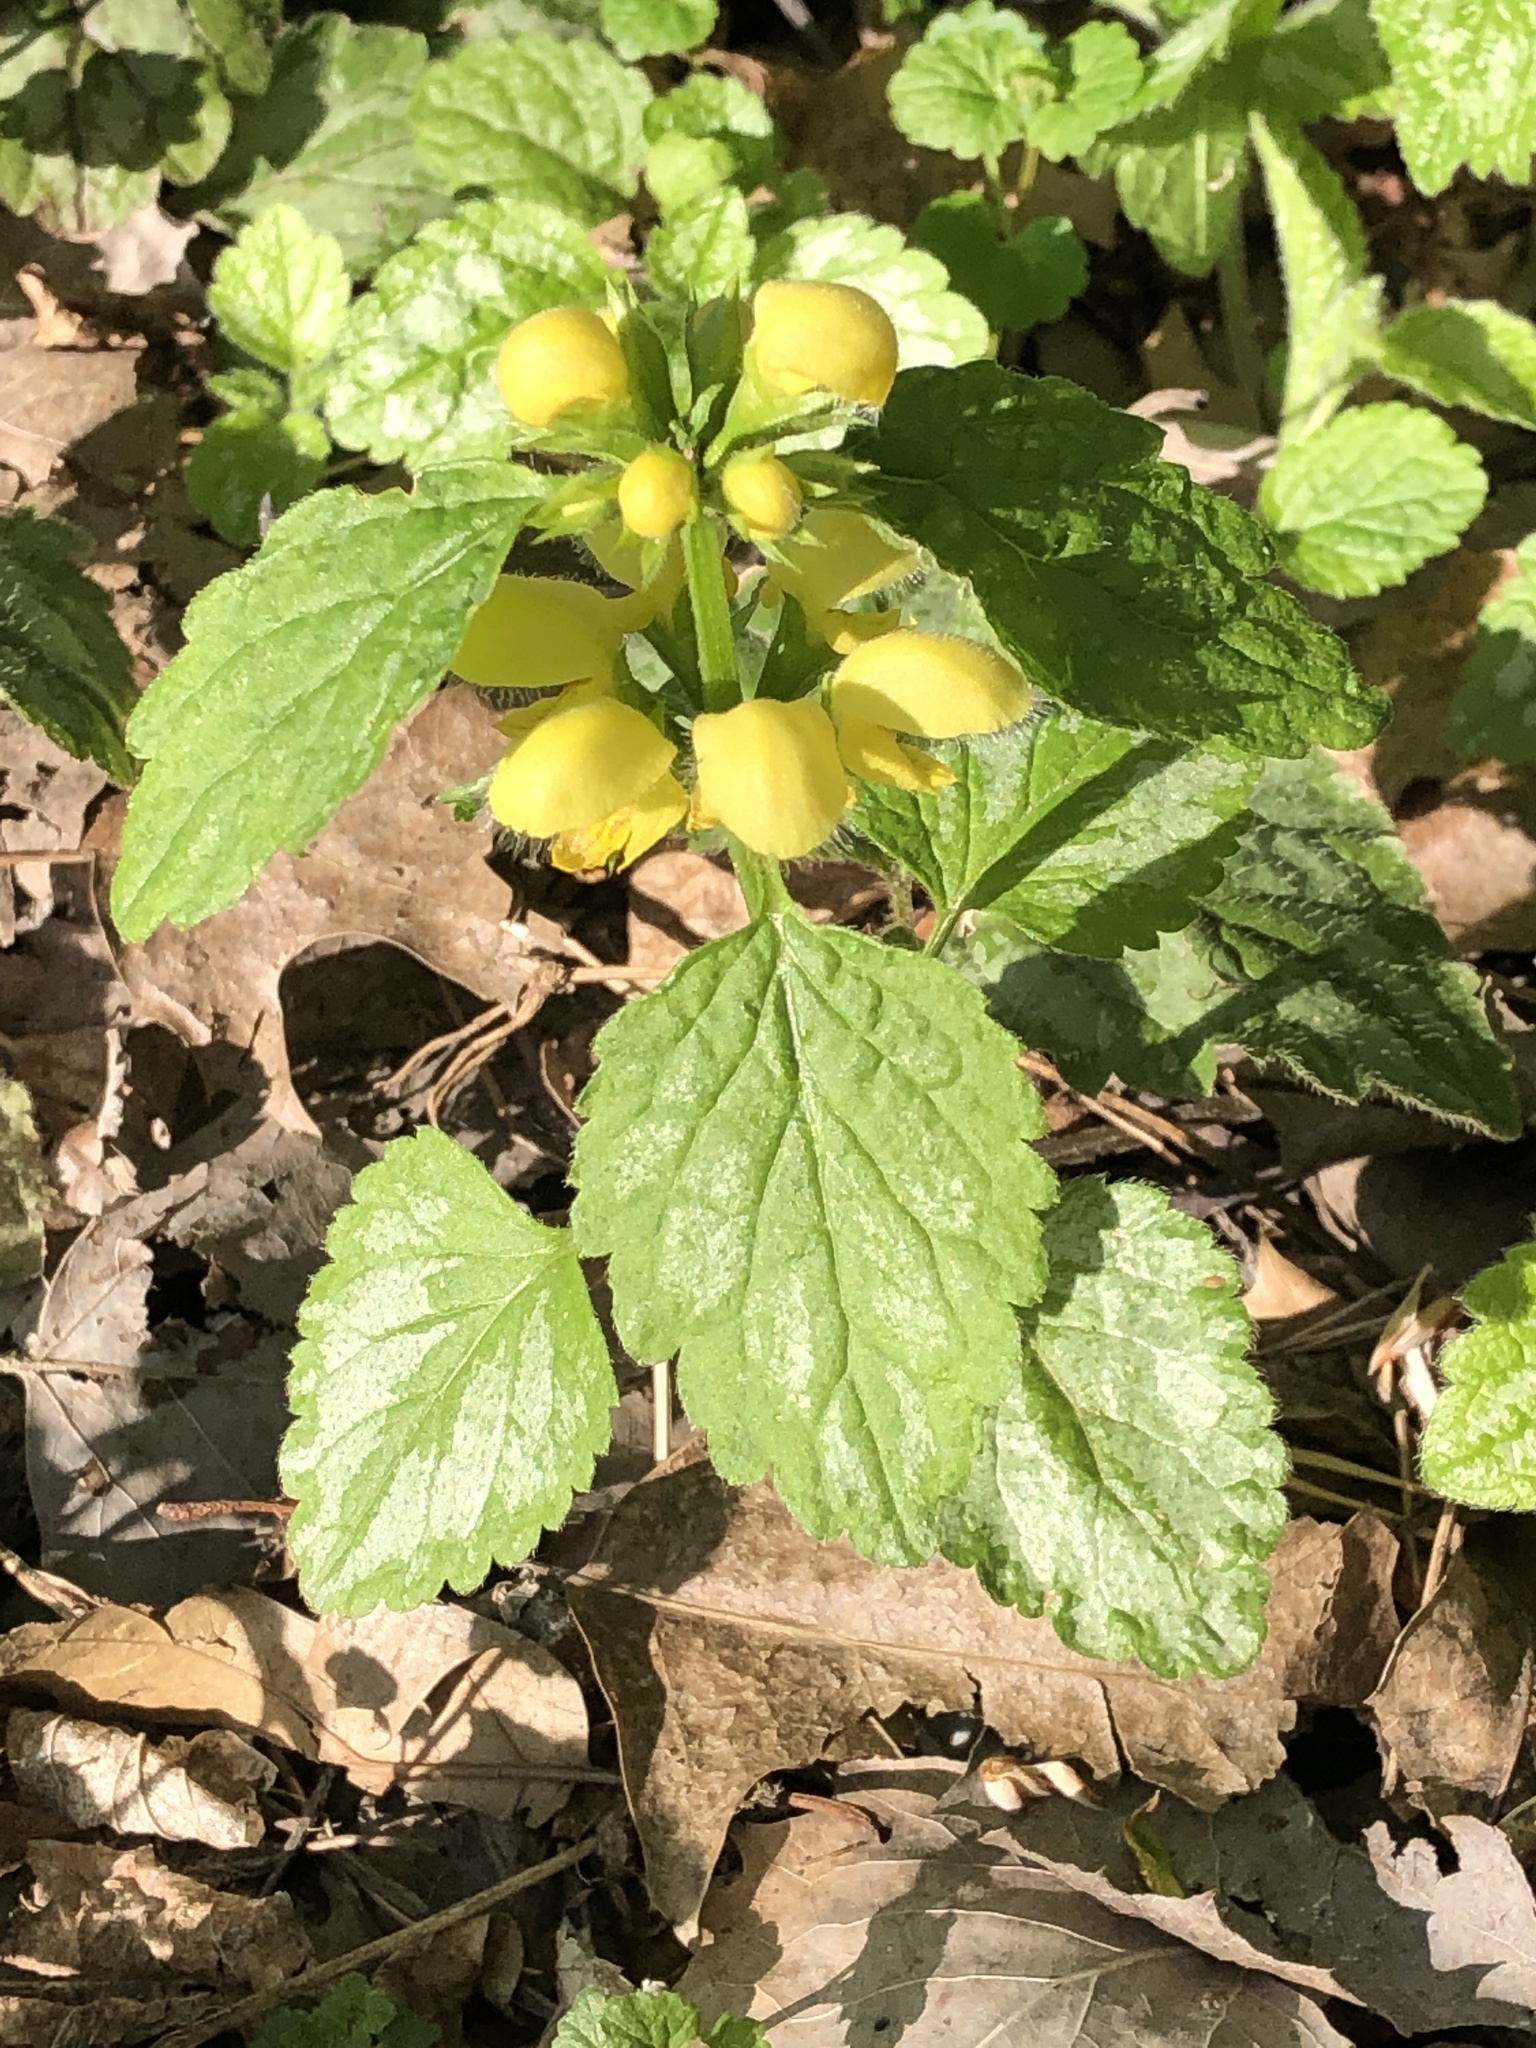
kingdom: Plantae
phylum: Tracheophyta
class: Magnoliopsida
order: Lamiales
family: Lamiaceae
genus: Lamium
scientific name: Lamium galeobdolon
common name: Yellow archangel
